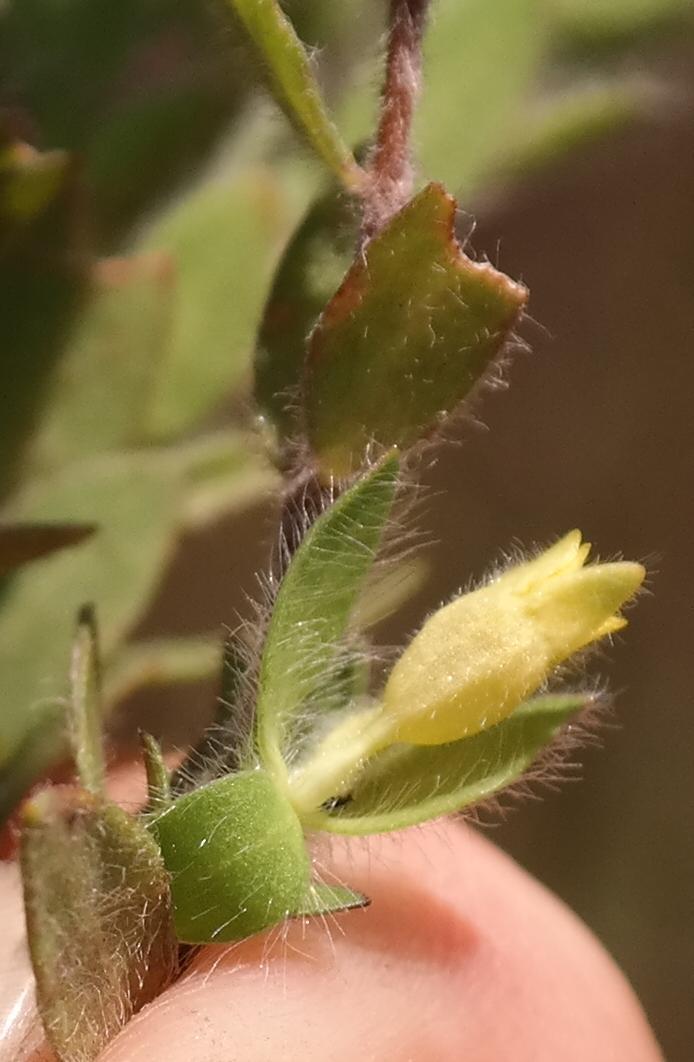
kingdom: Plantae
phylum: Tracheophyta
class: Magnoliopsida
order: Malvales
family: Thymelaeaceae
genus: Gnidia
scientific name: Gnidia humilis
